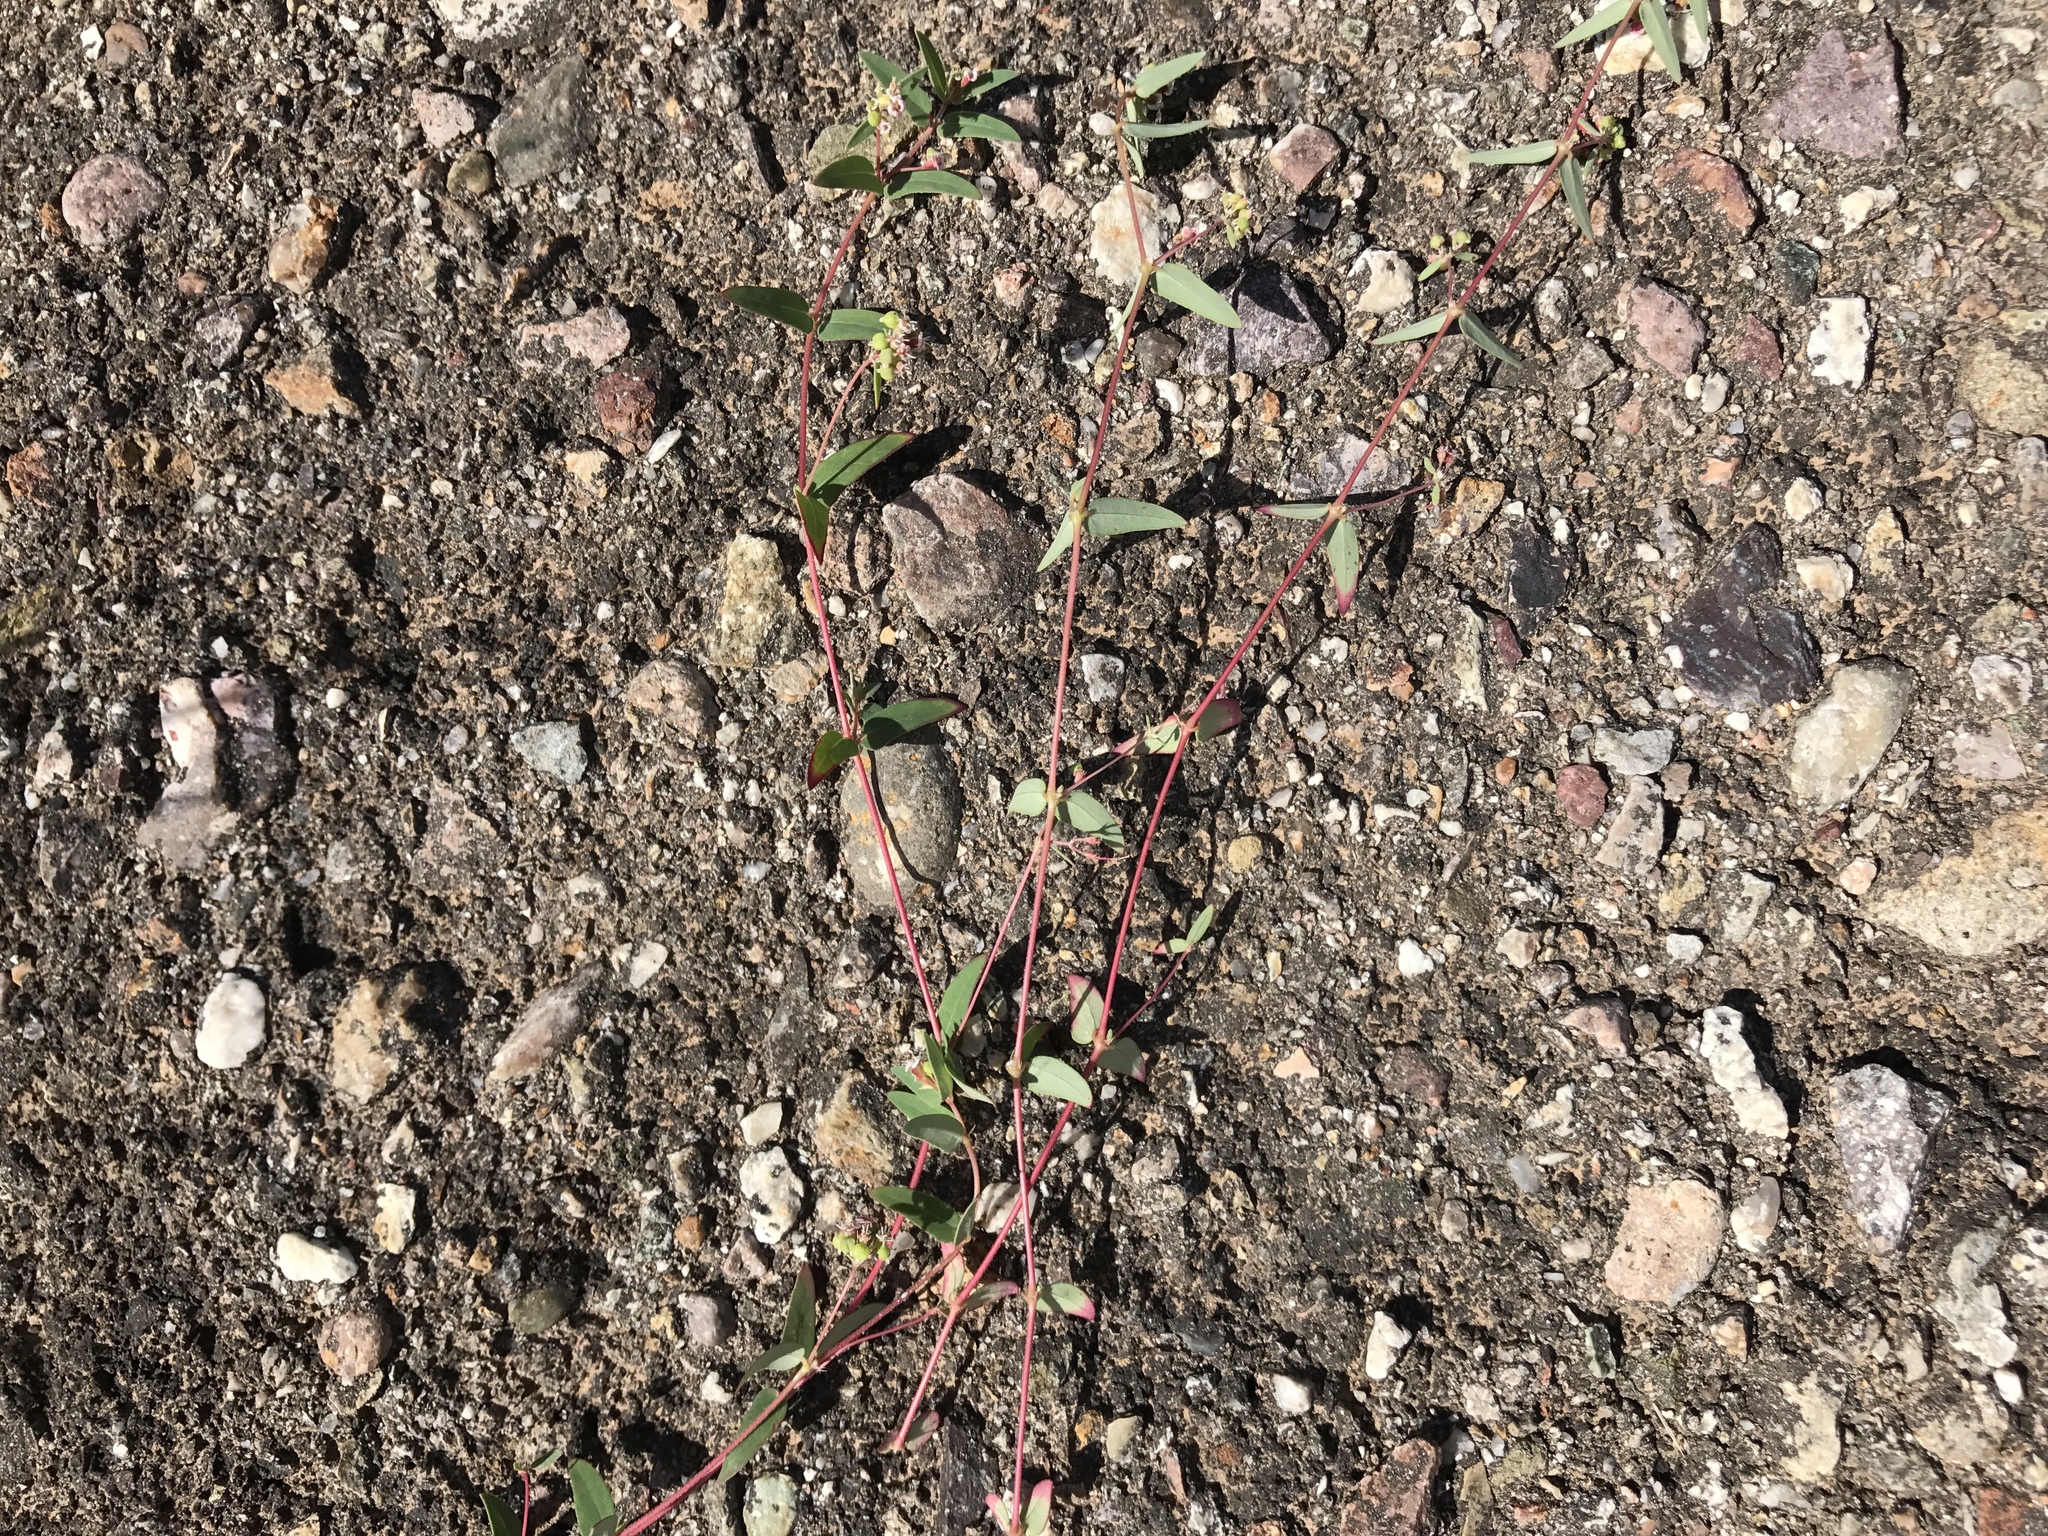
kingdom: Plantae
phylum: Tracheophyta
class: Magnoliopsida
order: Malpighiales
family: Euphorbiaceae
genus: Euphorbia
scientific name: Euphorbia capitellata
